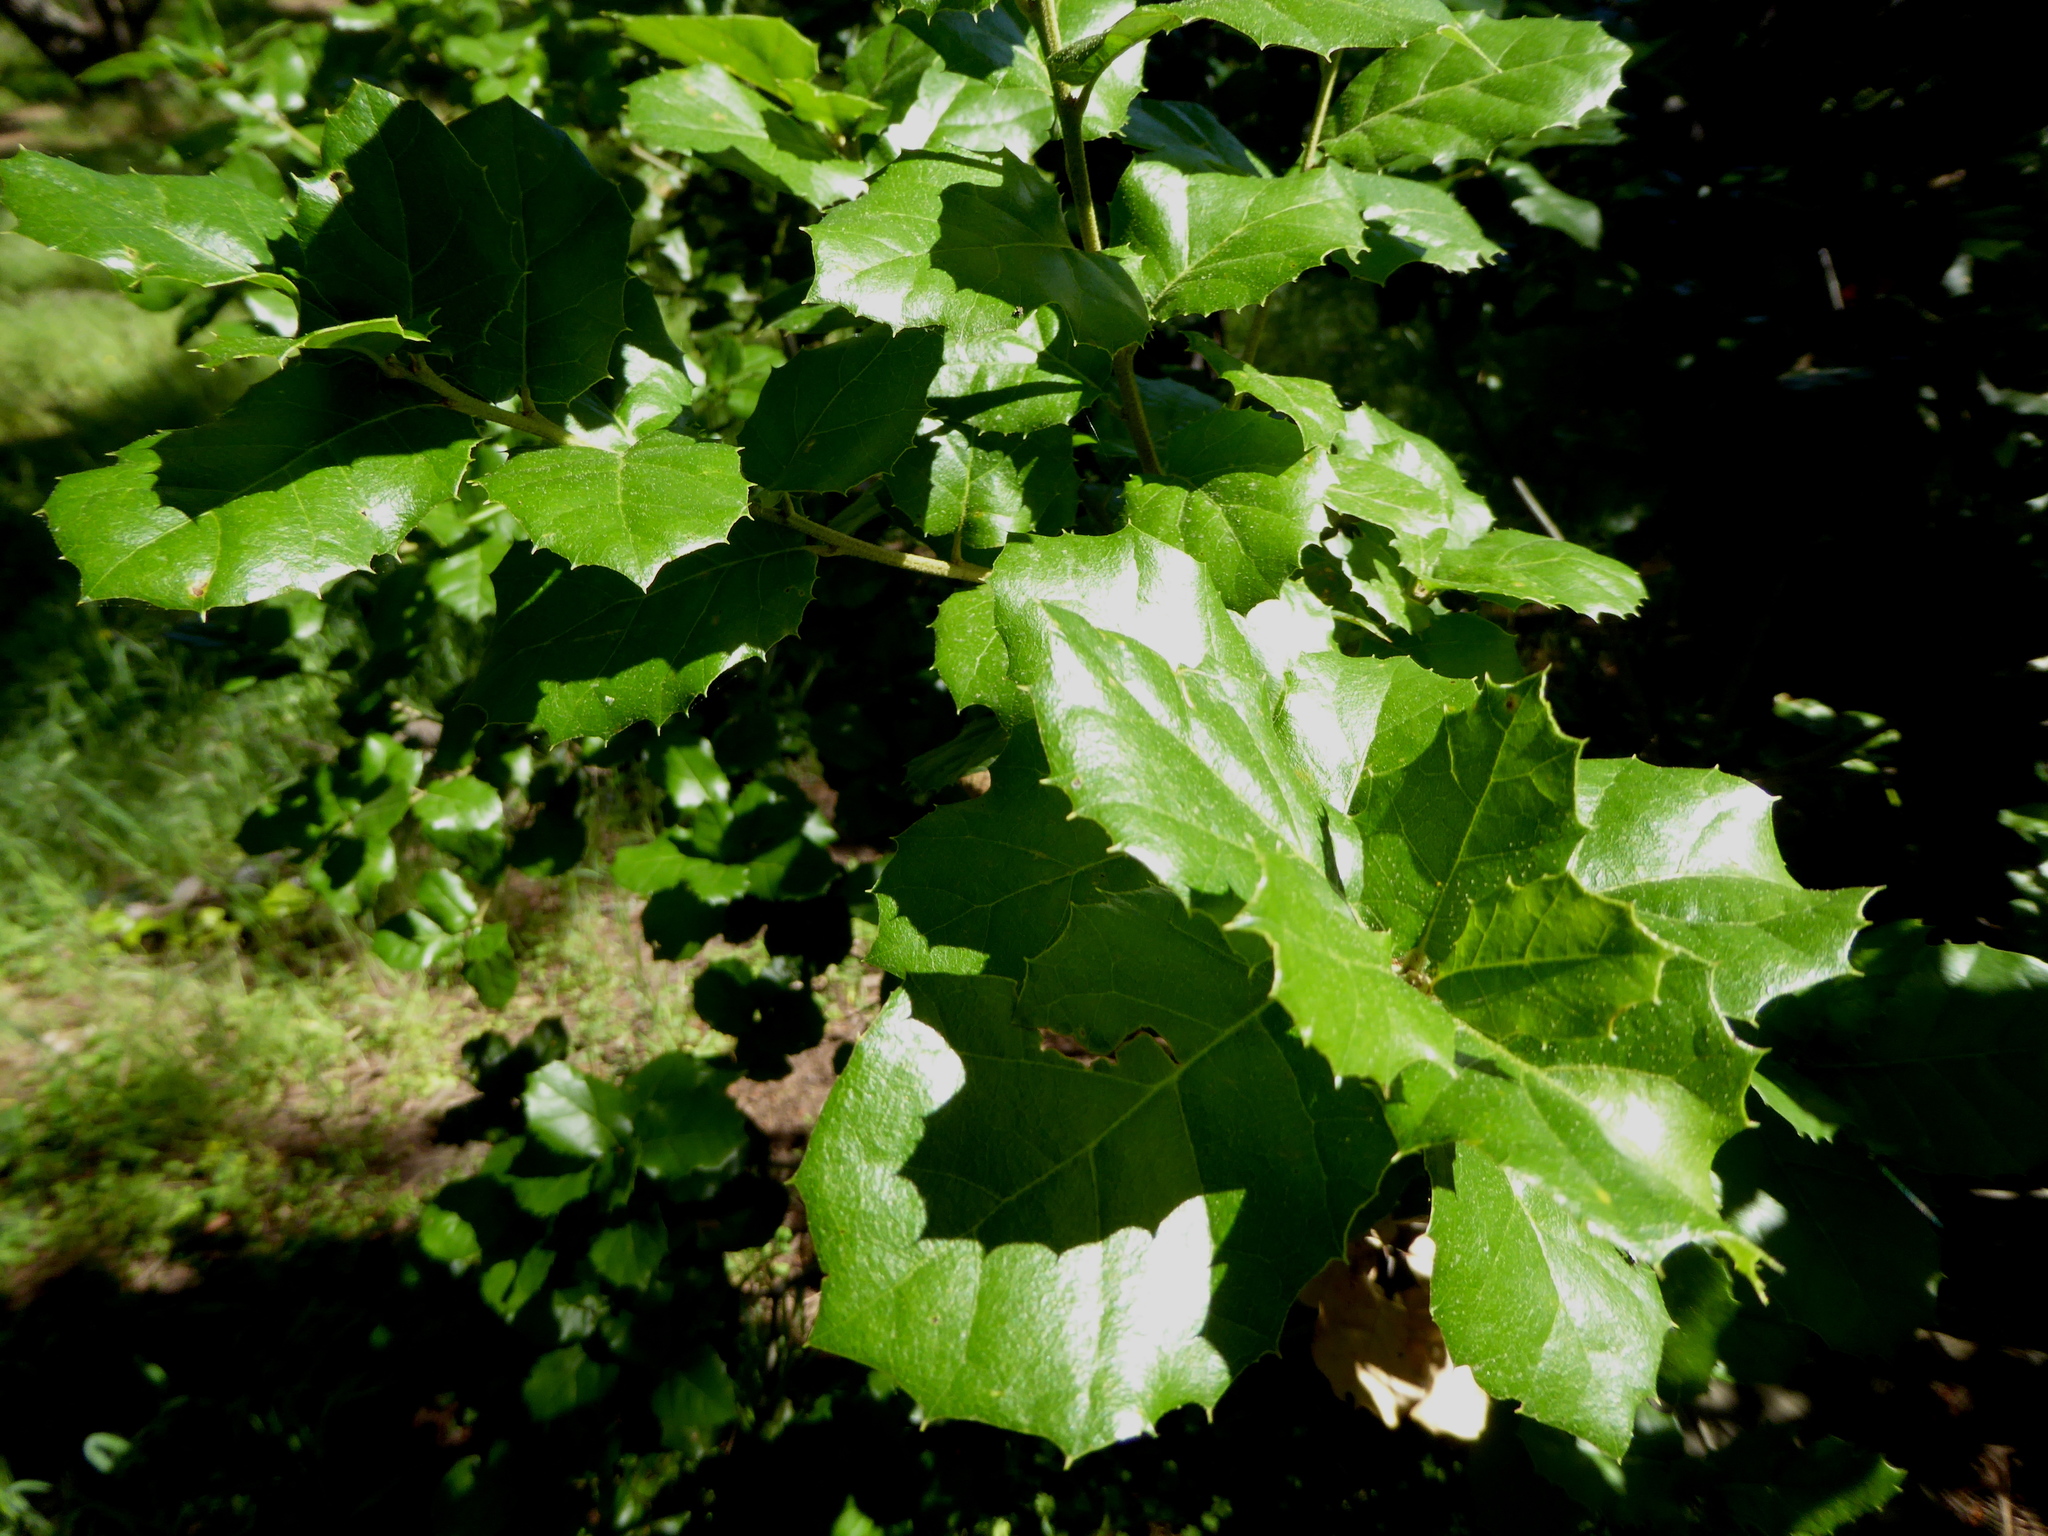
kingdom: Plantae
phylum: Tracheophyta
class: Magnoliopsida
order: Fagales
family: Fagaceae
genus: Quercus
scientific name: Quercus agrifolia
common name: California live oak
